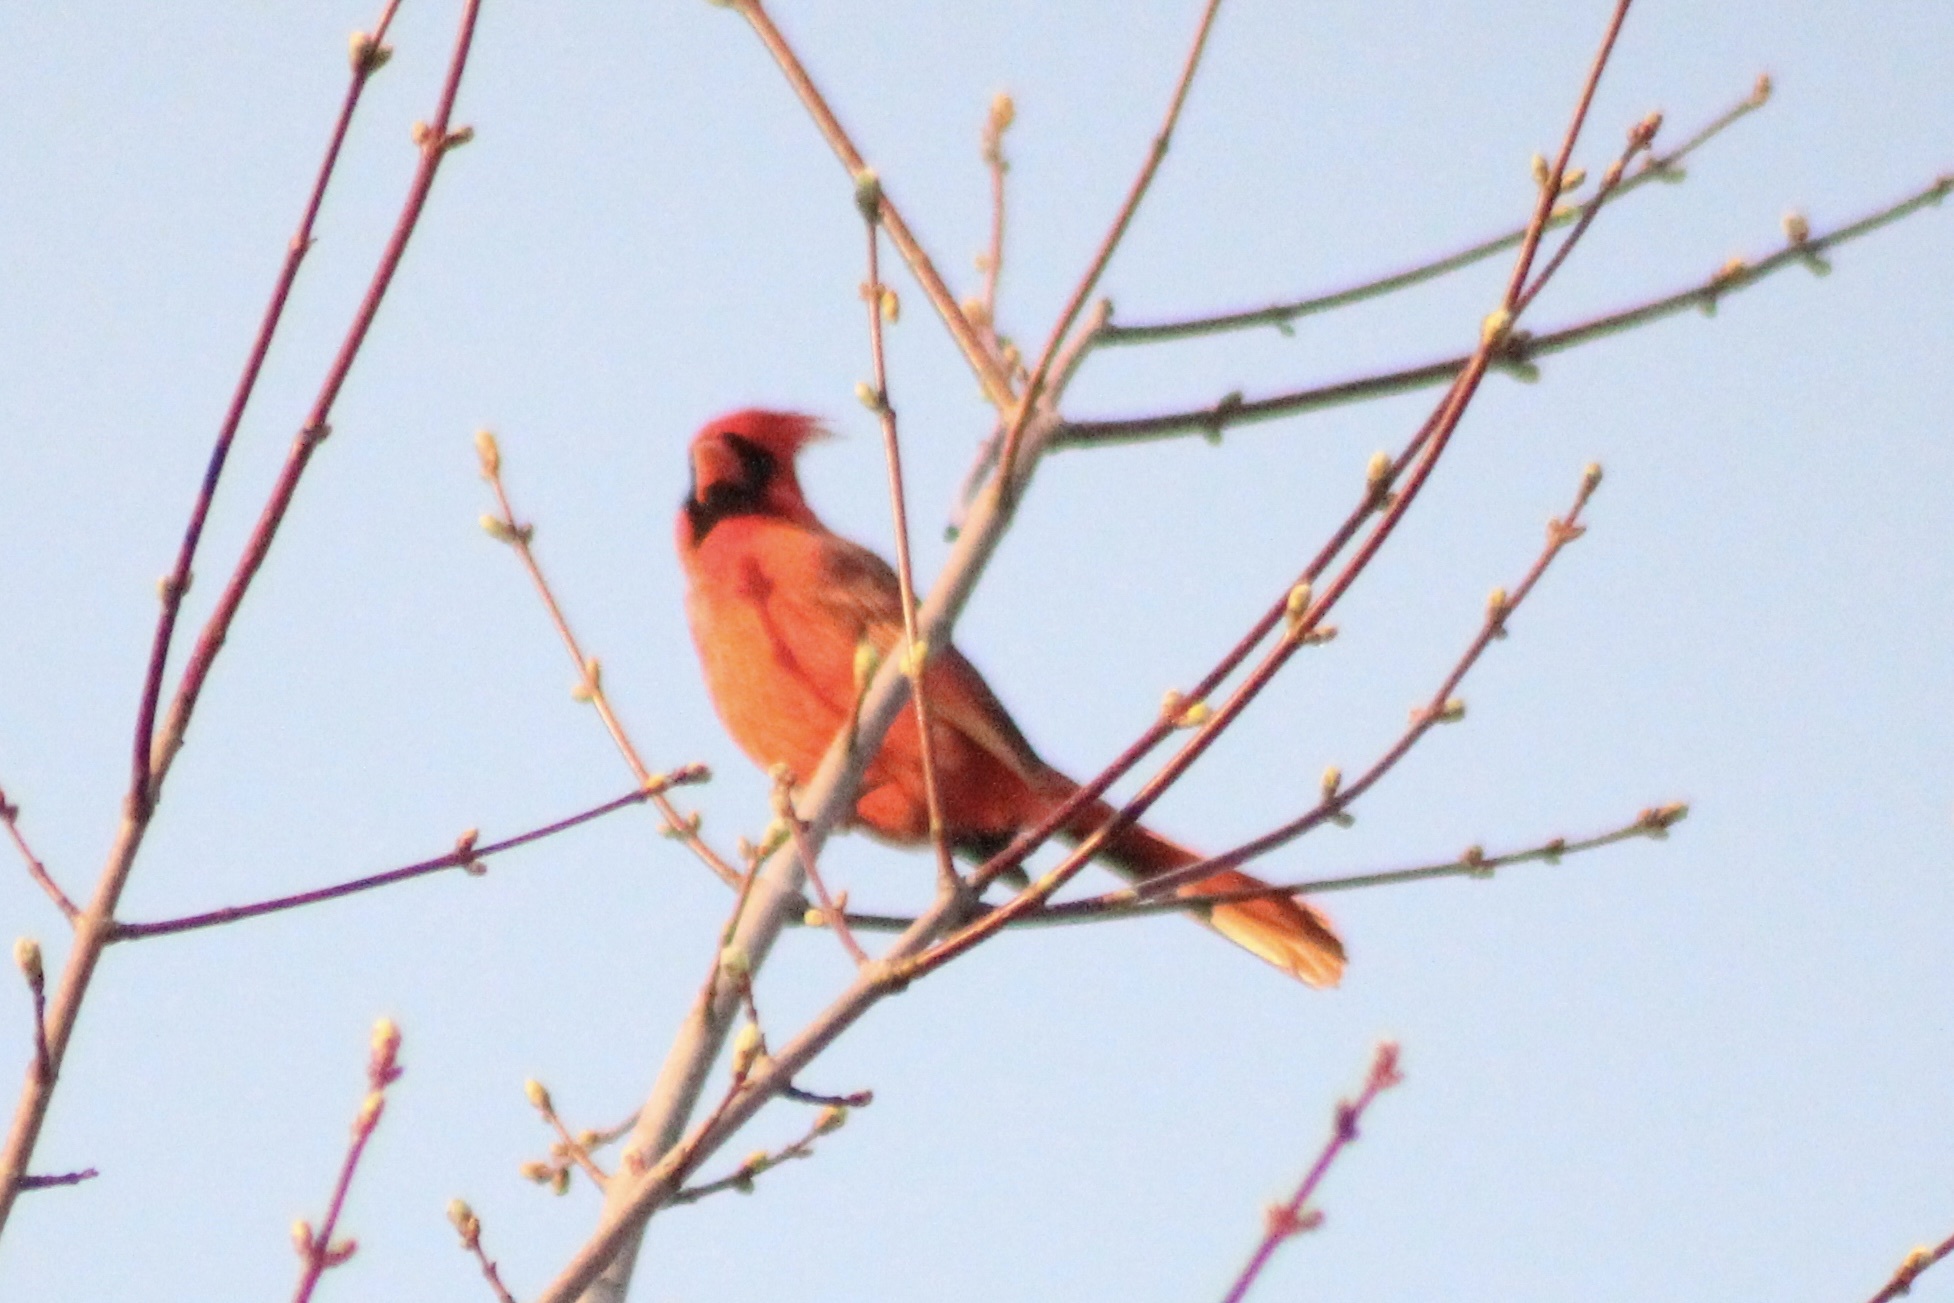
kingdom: Animalia
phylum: Chordata
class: Aves
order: Passeriformes
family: Cardinalidae
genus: Cardinalis
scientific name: Cardinalis cardinalis
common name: Northern cardinal
